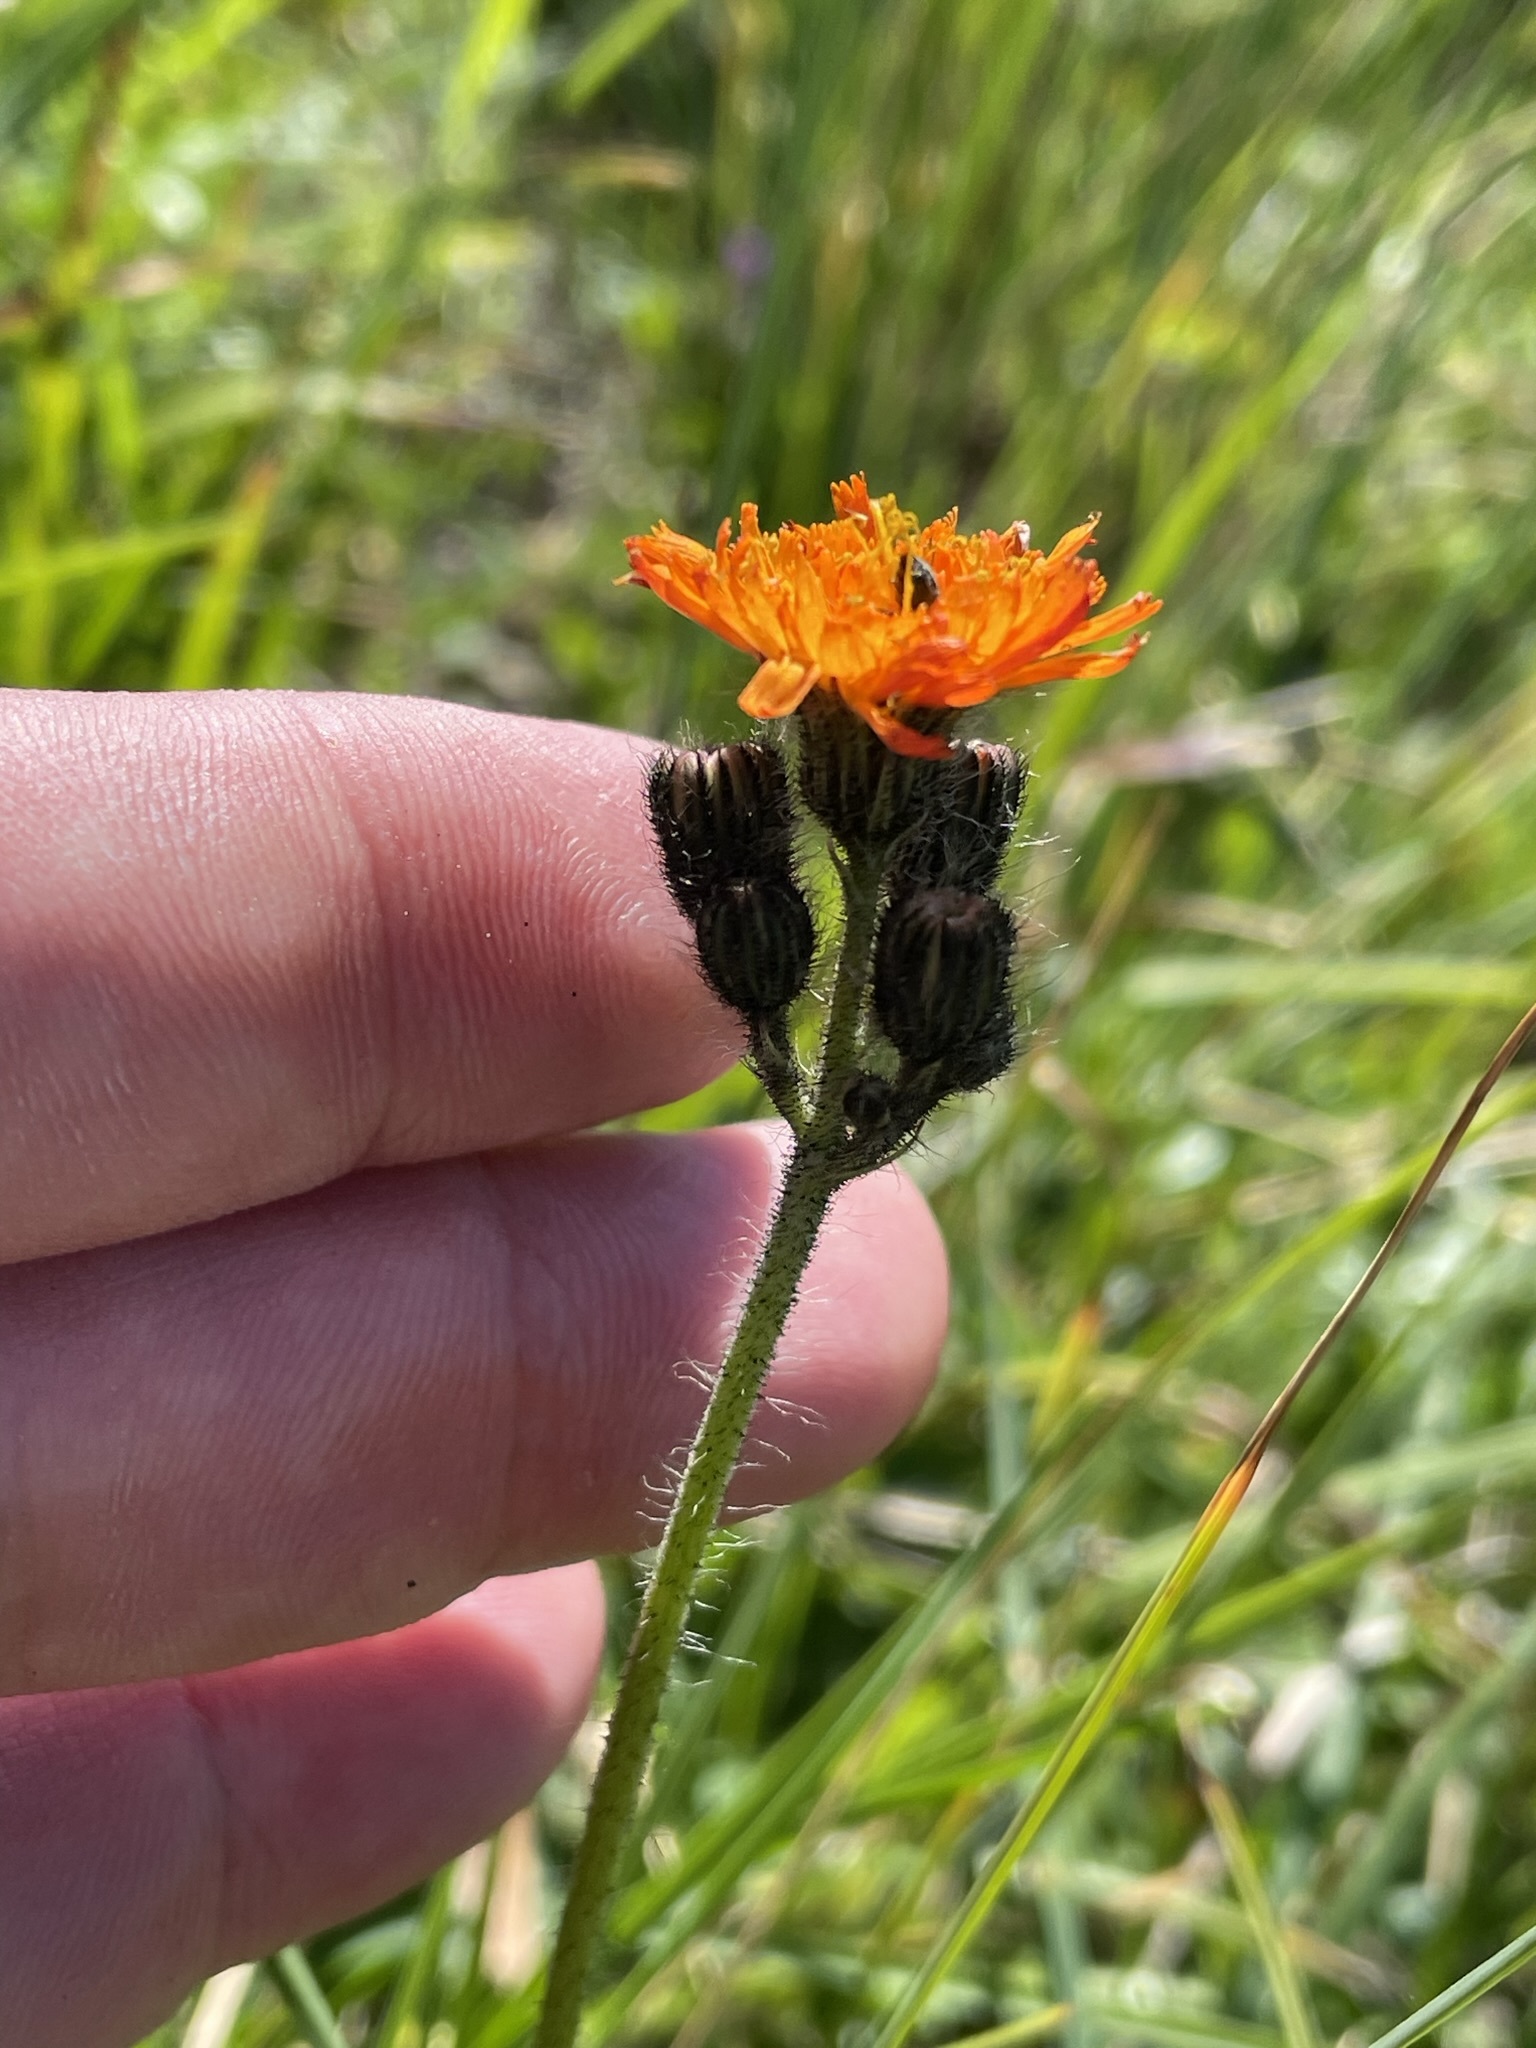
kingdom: Plantae
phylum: Tracheophyta
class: Magnoliopsida
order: Asterales
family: Asteraceae
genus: Pilosella
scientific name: Pilosella aurantiaca
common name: Fox-and-cubs
